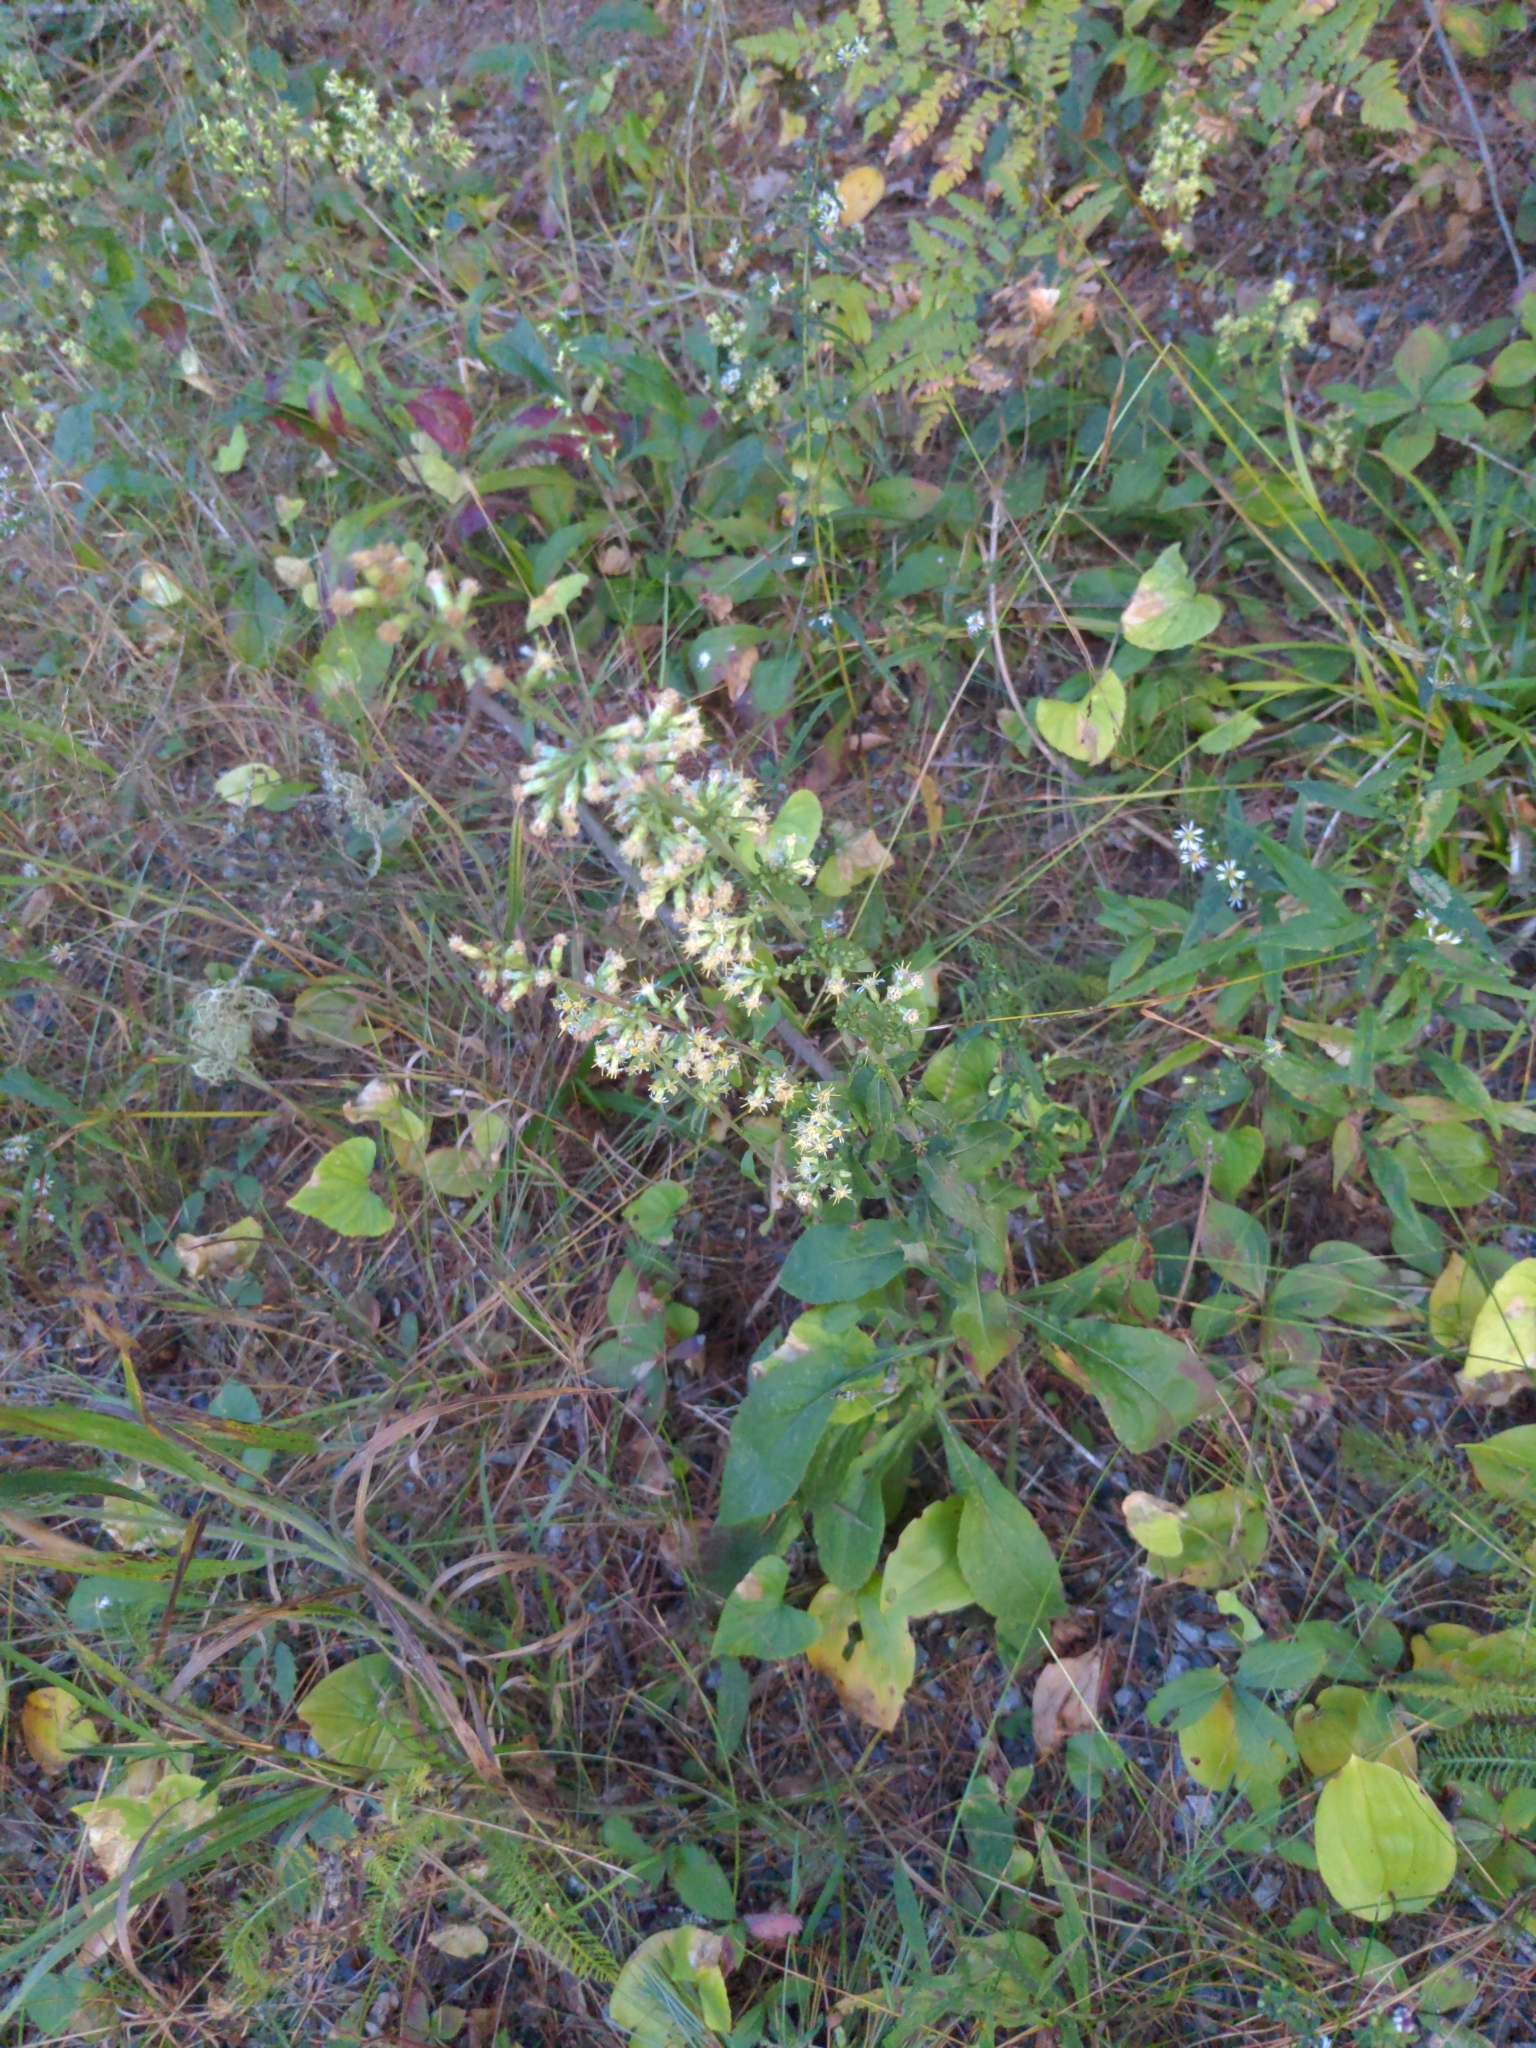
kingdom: Plantae
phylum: Tracheophyta
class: Magnoliopsida
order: Asterales
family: Asteraceae
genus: Solidago
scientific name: Solidago bicolor
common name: Silverrod
